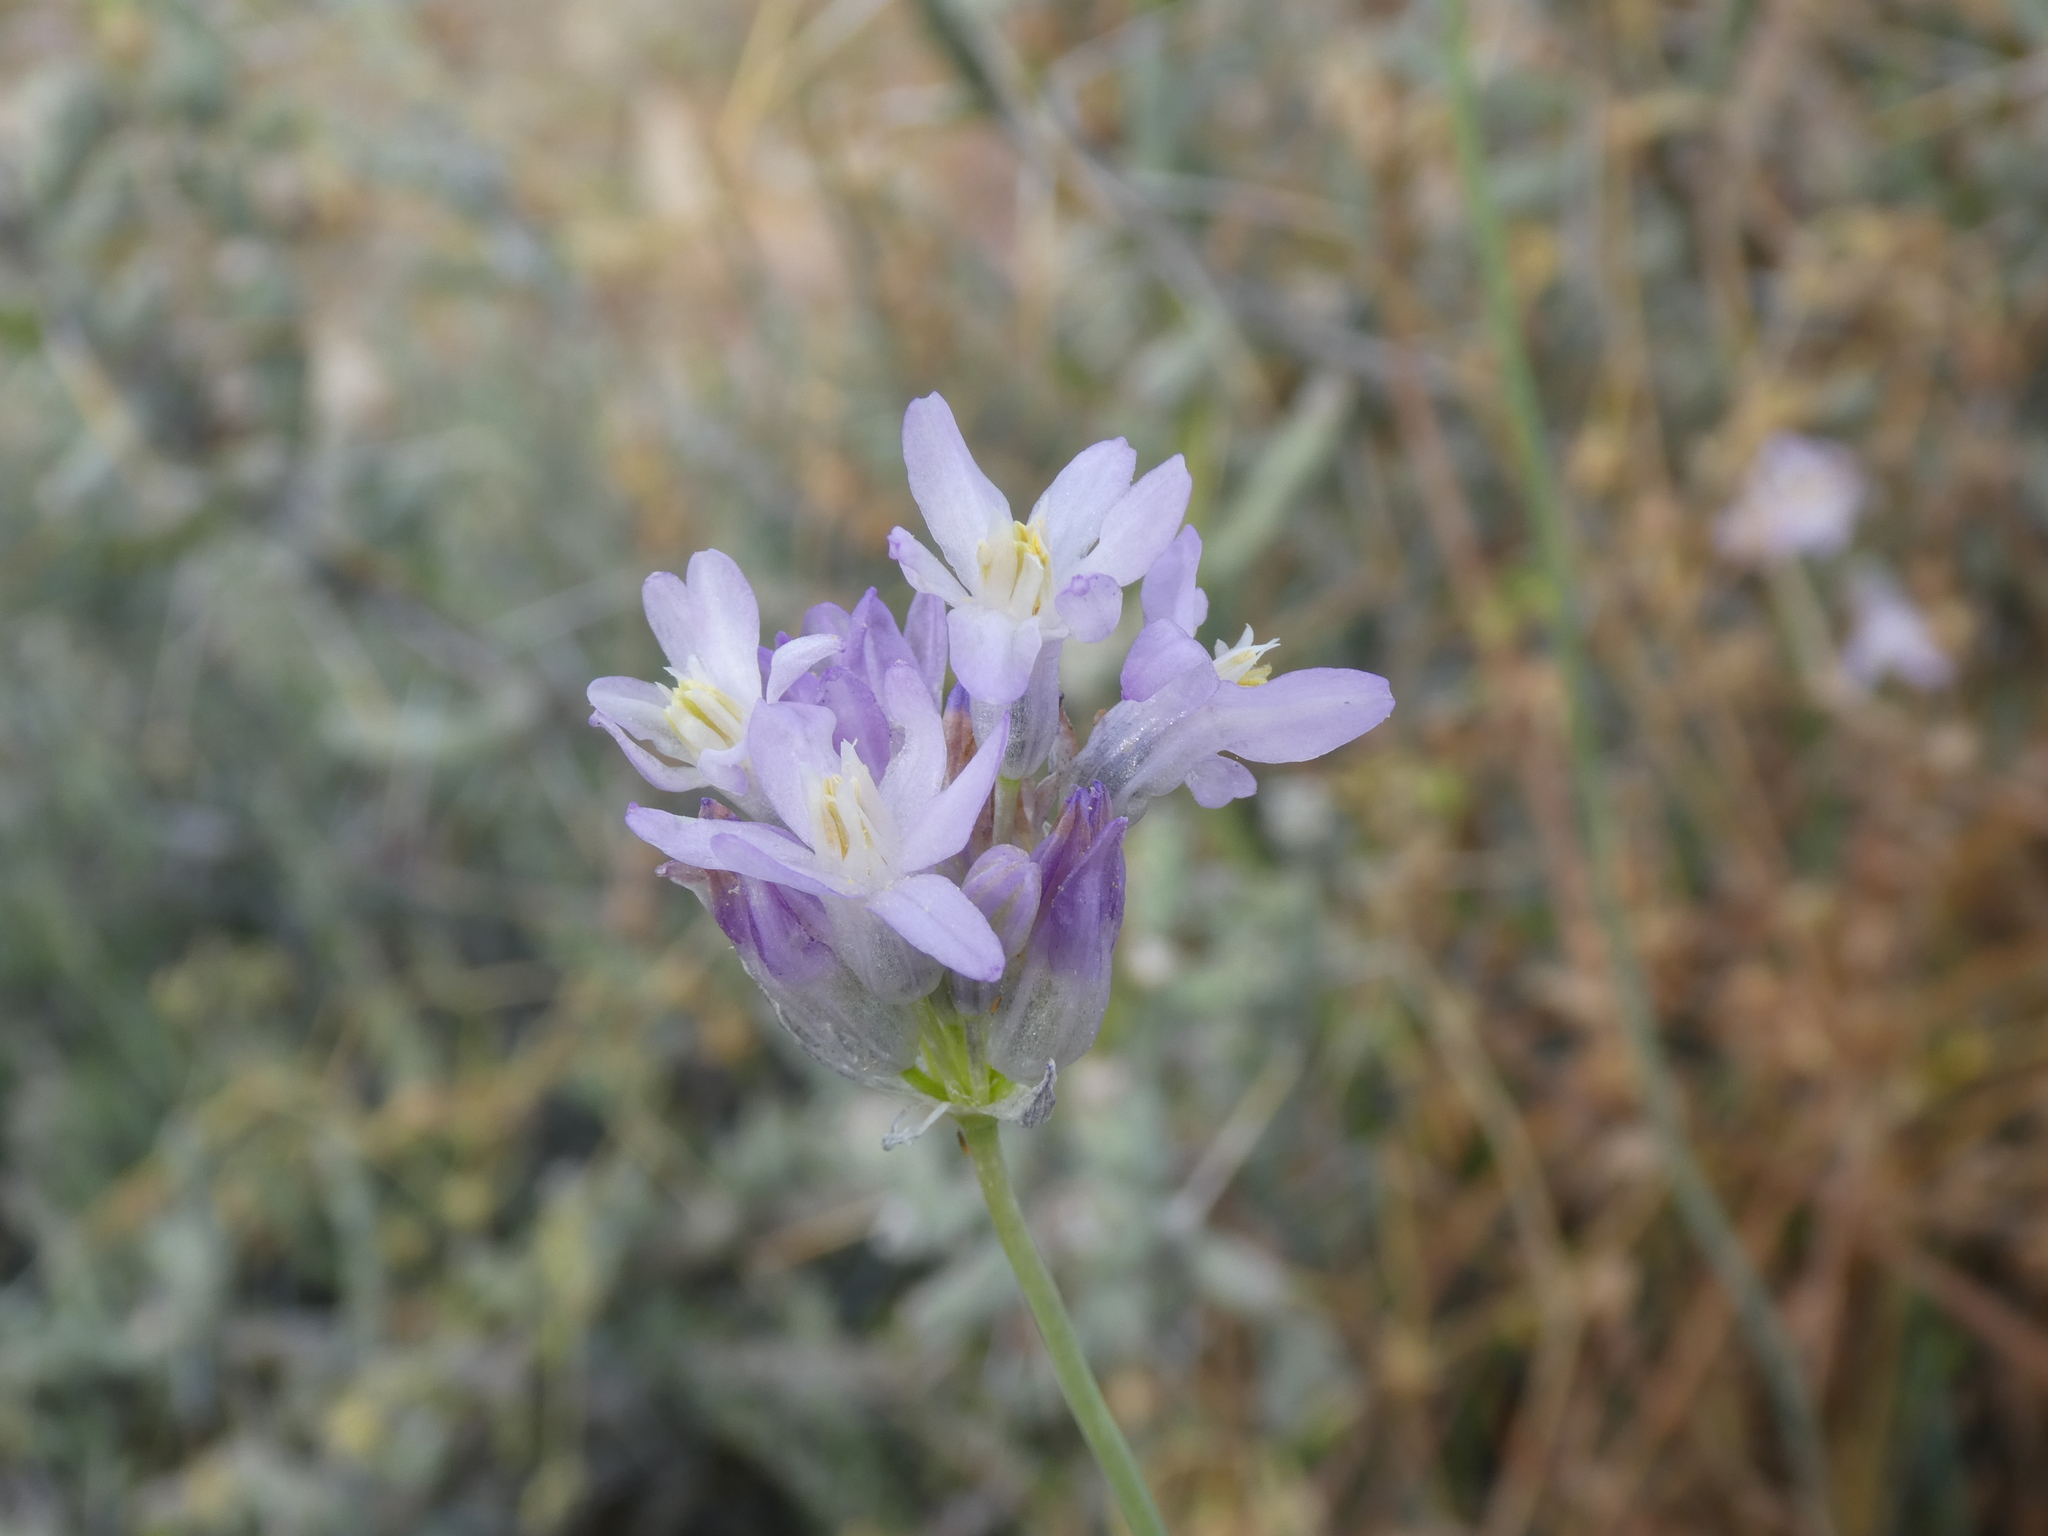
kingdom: Plantae
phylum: Tracheophyta
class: Liliopsida
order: Asparagales
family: Asparagaceae
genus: Dipterostemon
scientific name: Dipterostemon capitatus
